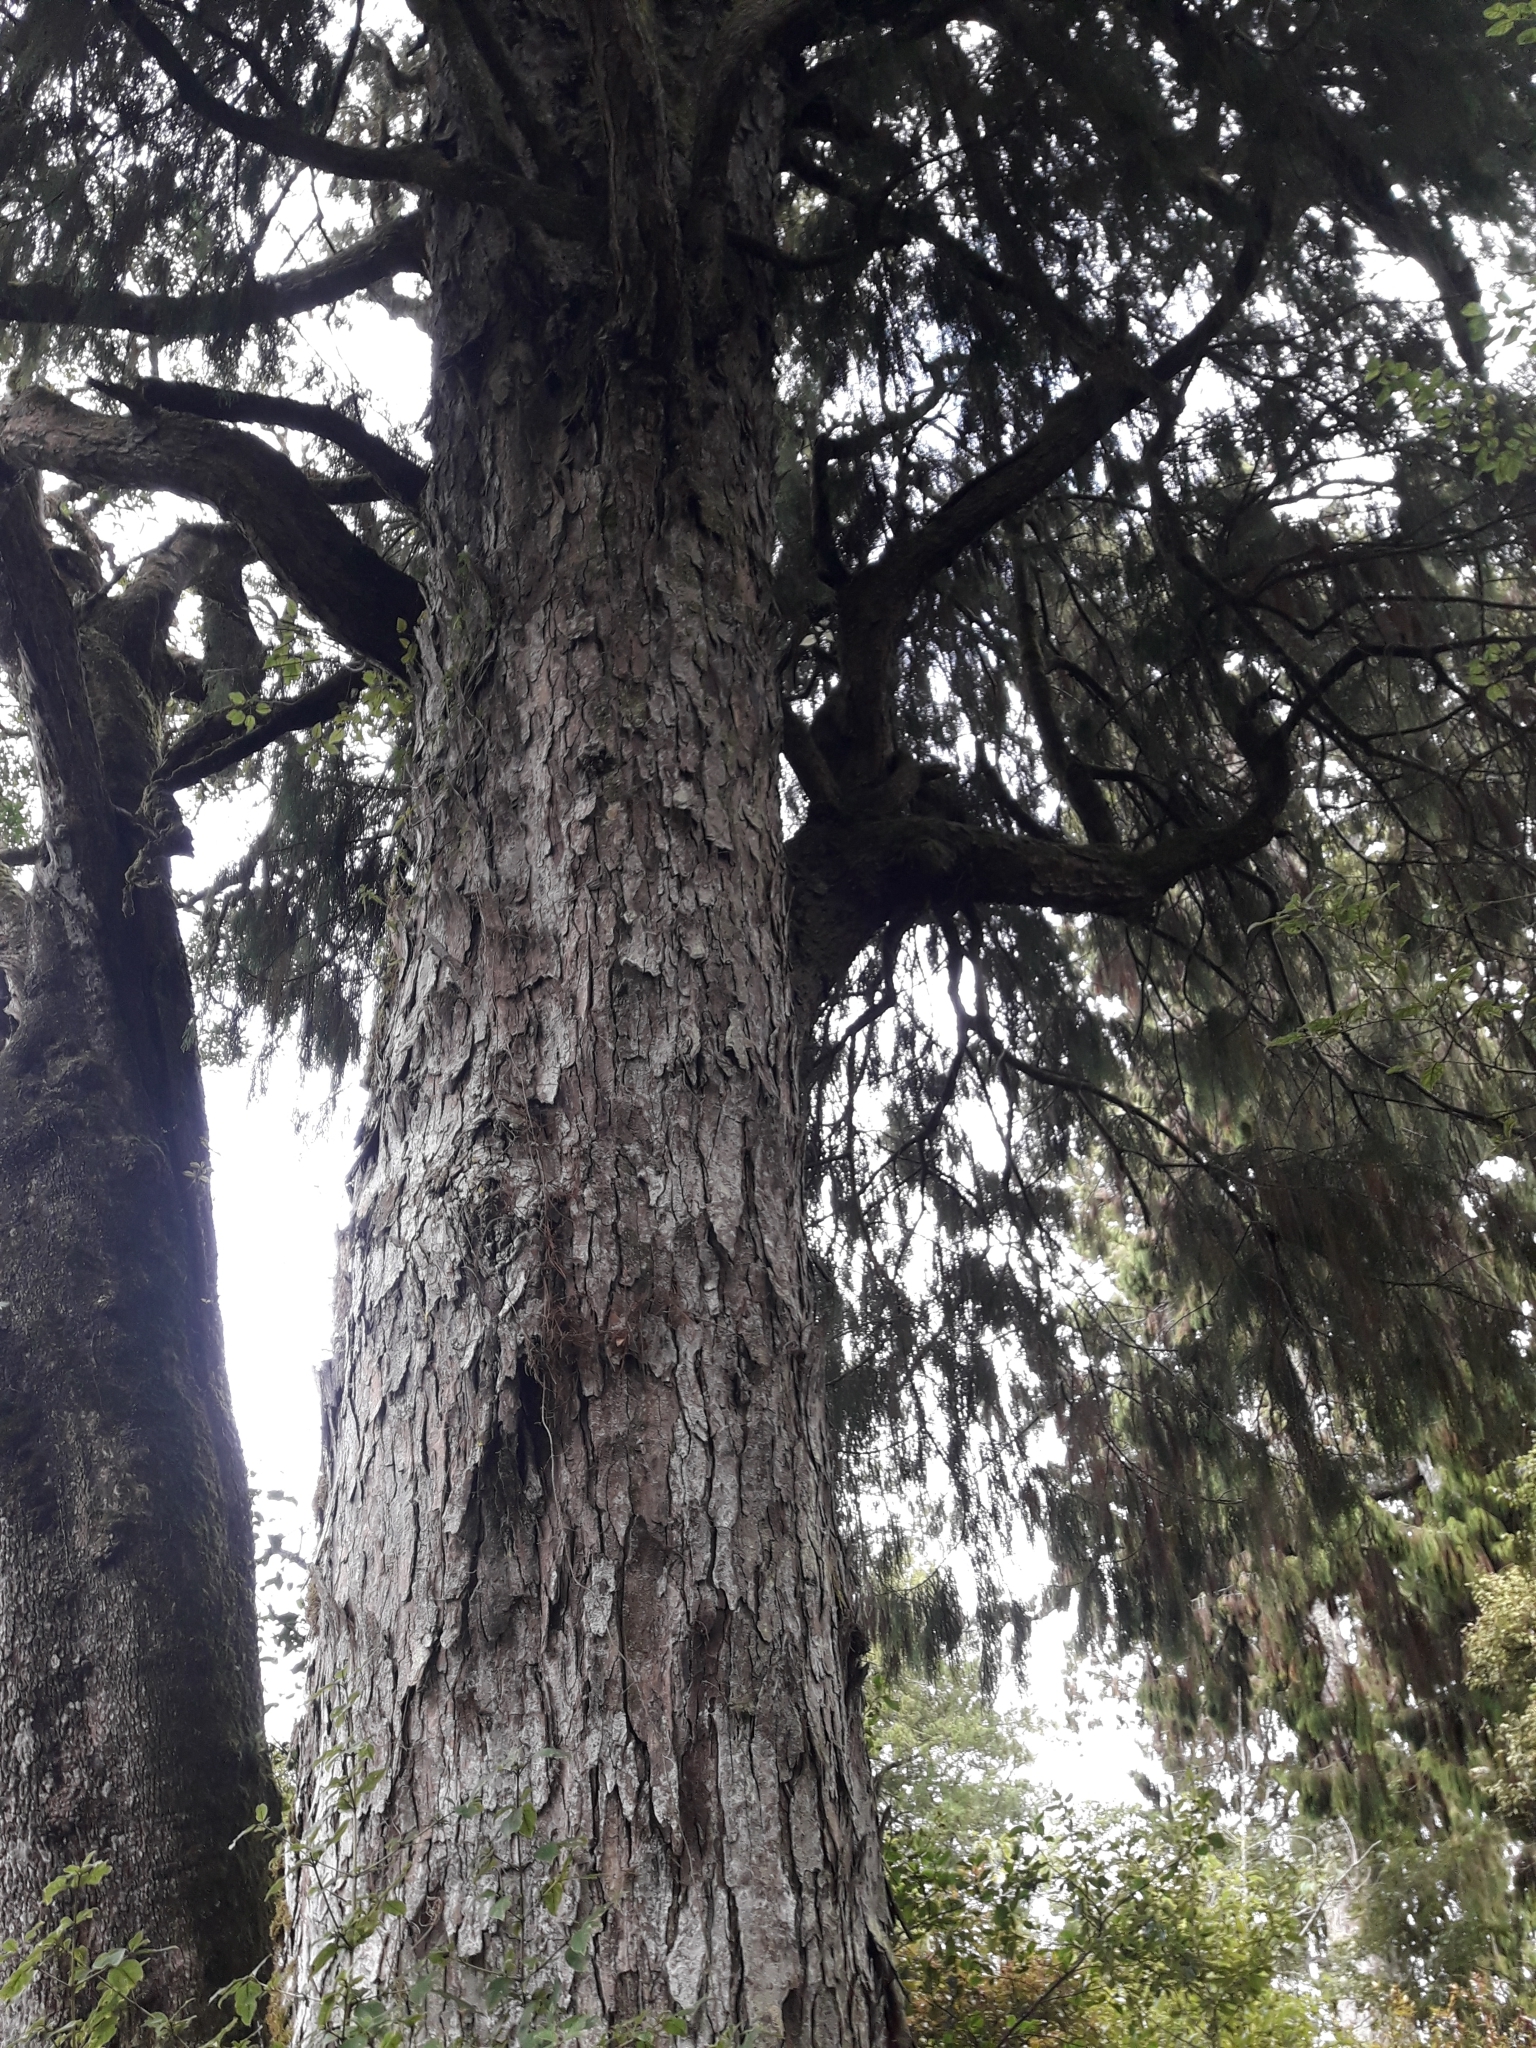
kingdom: Plantae
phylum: Tracheophyta
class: Pinopsida
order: Pinales
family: Podocarpaceae
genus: Dacrydium
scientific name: Dacrydium cupressinum
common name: Red pine
